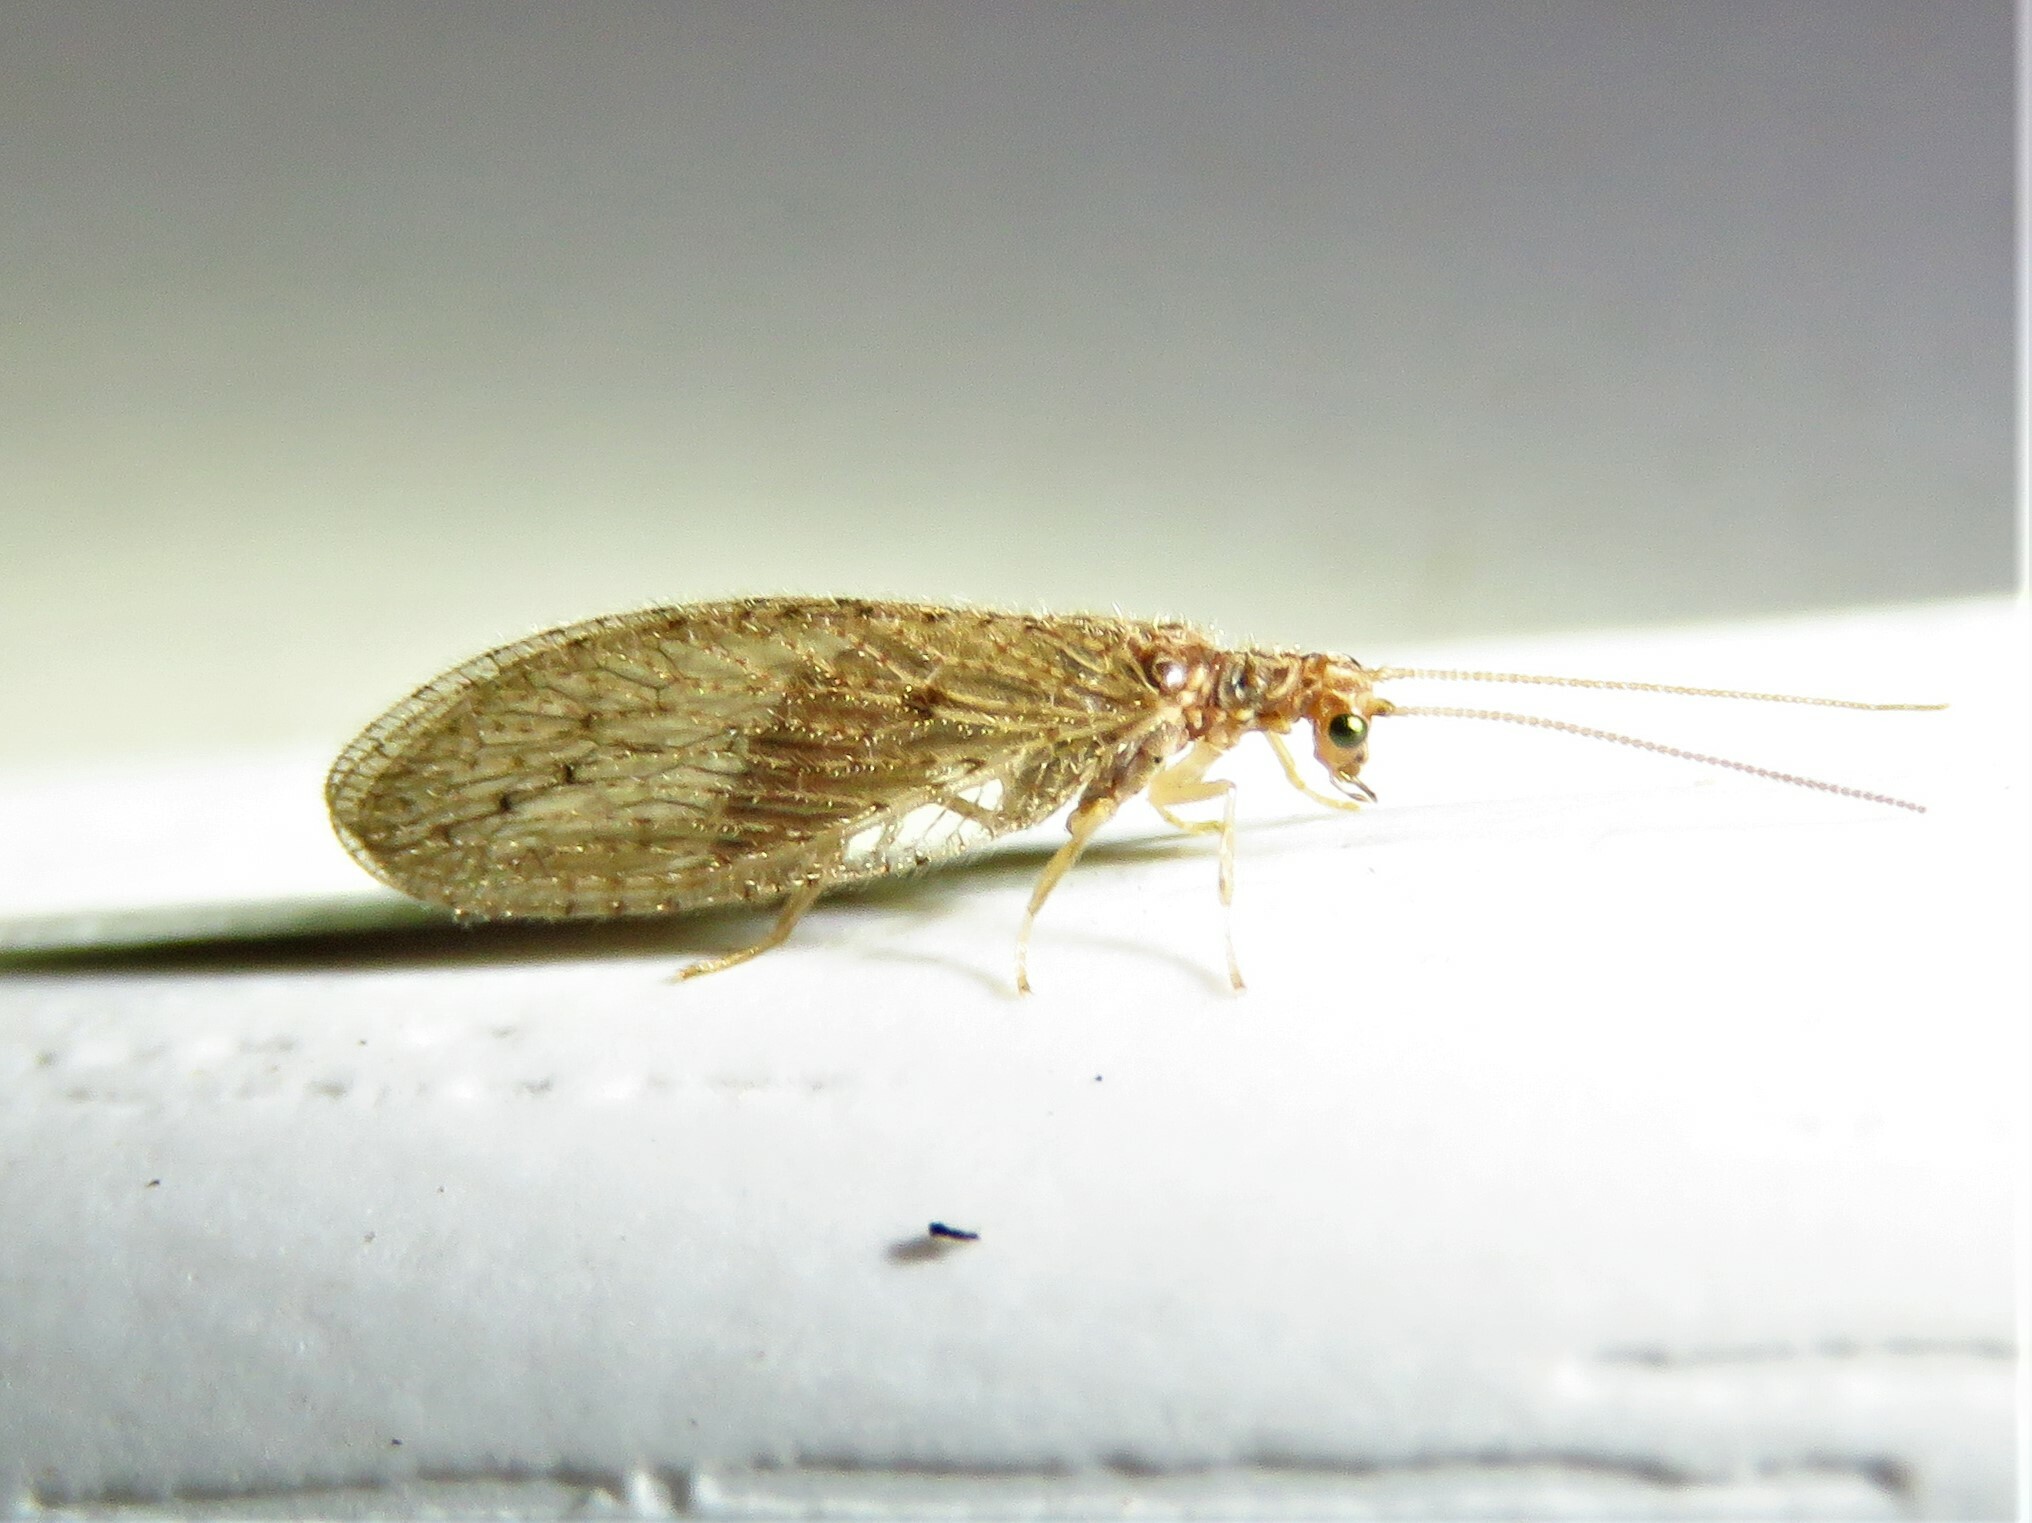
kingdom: Animalia
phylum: Arthropoda
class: Insecta
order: Neuroptera
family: Hemerobiidae
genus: Micromus
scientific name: Micromus subanticus
